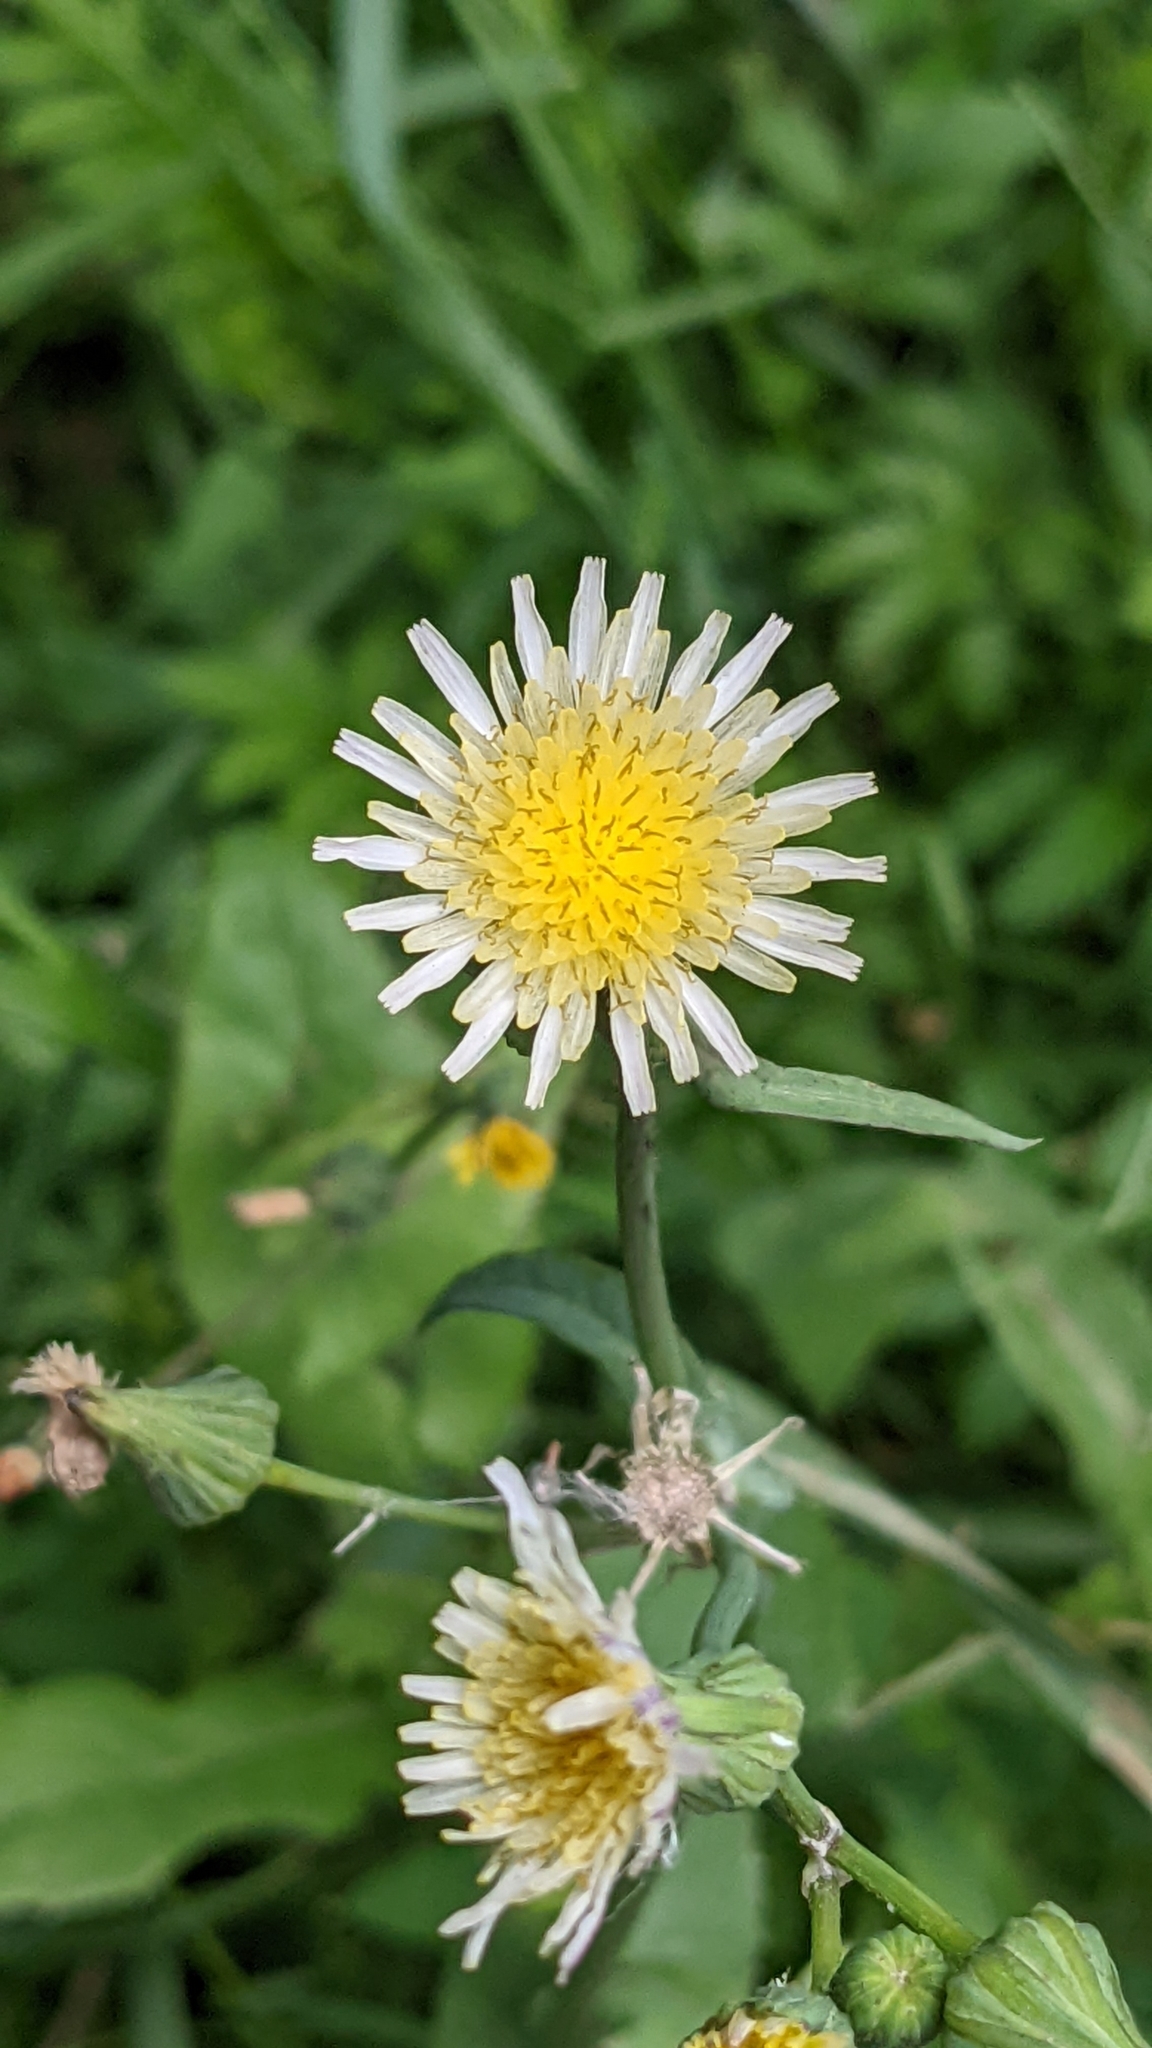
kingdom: Plantae
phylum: Tracheophyta
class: Magnoliopsida
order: Asterales
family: Asteraceae
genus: Sonchus
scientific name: Sonchus oleraceus
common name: Common sowthistle
